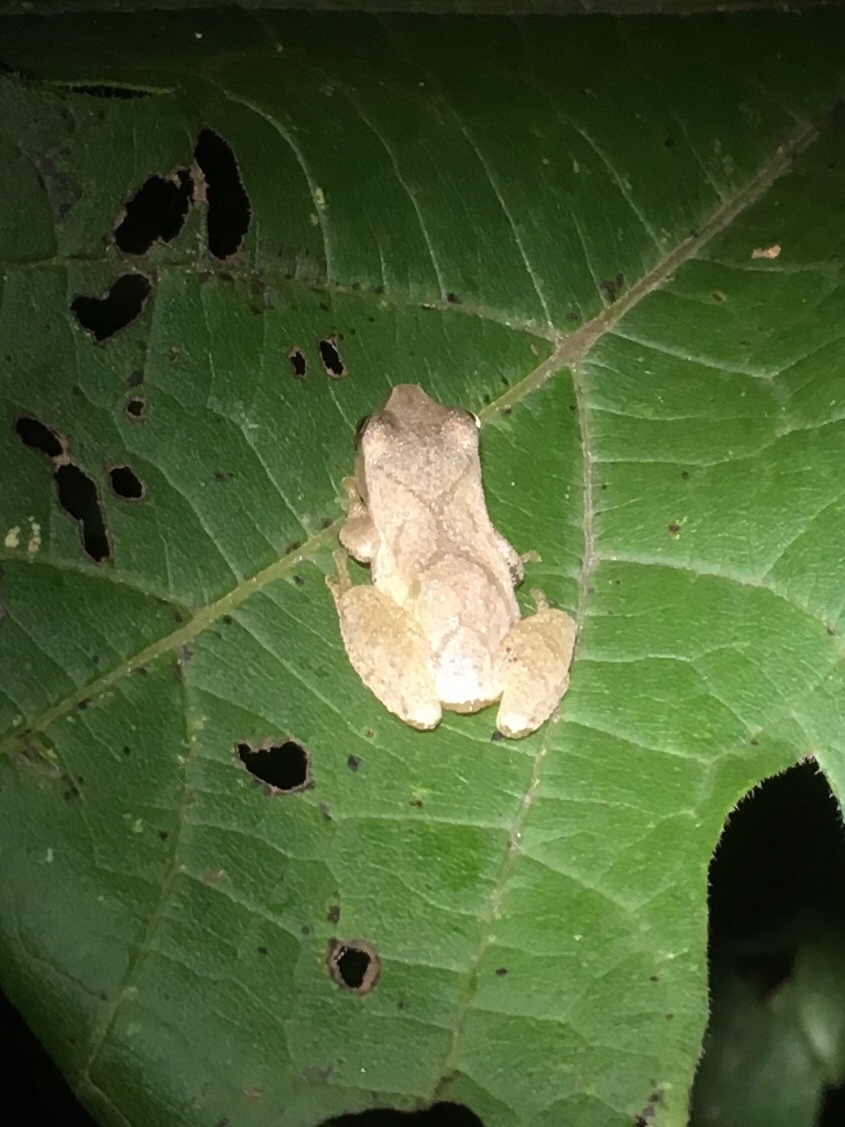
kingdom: Animalia
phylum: Chordata
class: Amphibia
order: Anura
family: Hylidae
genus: Pseudacris
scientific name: Pseudacris crucifer
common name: Spring peeper
